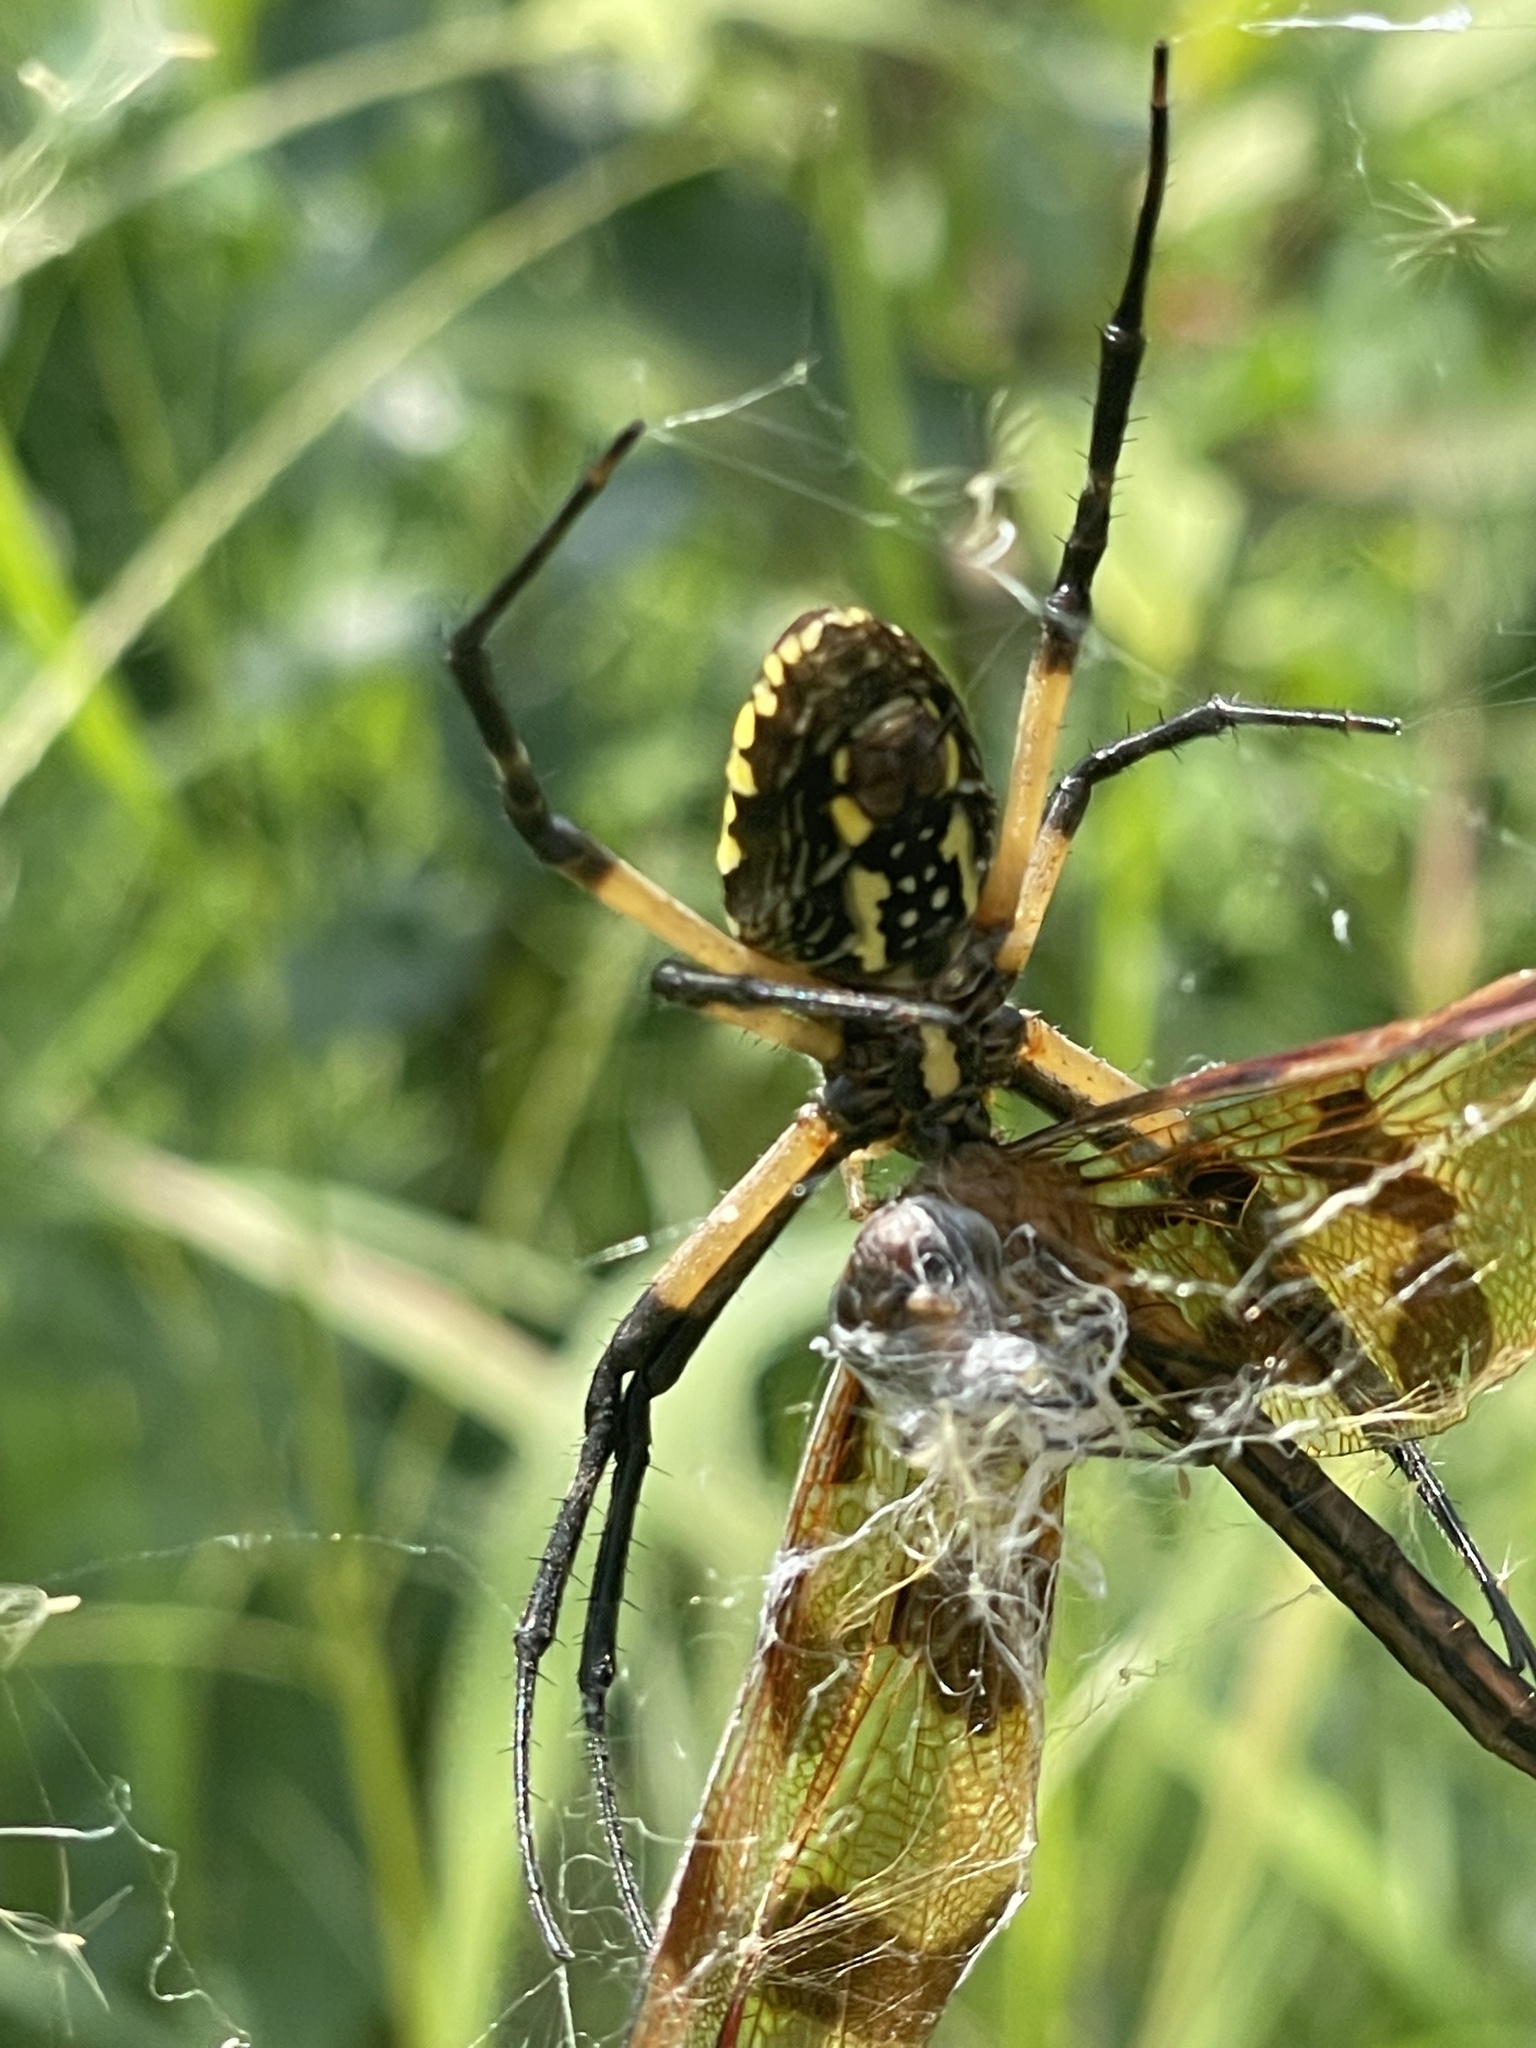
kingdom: Animalia
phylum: Arthropoda
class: Arachnida
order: Araneae
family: Araneidae
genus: Argiope
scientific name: Argiope aurantia
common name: Orb weavers
